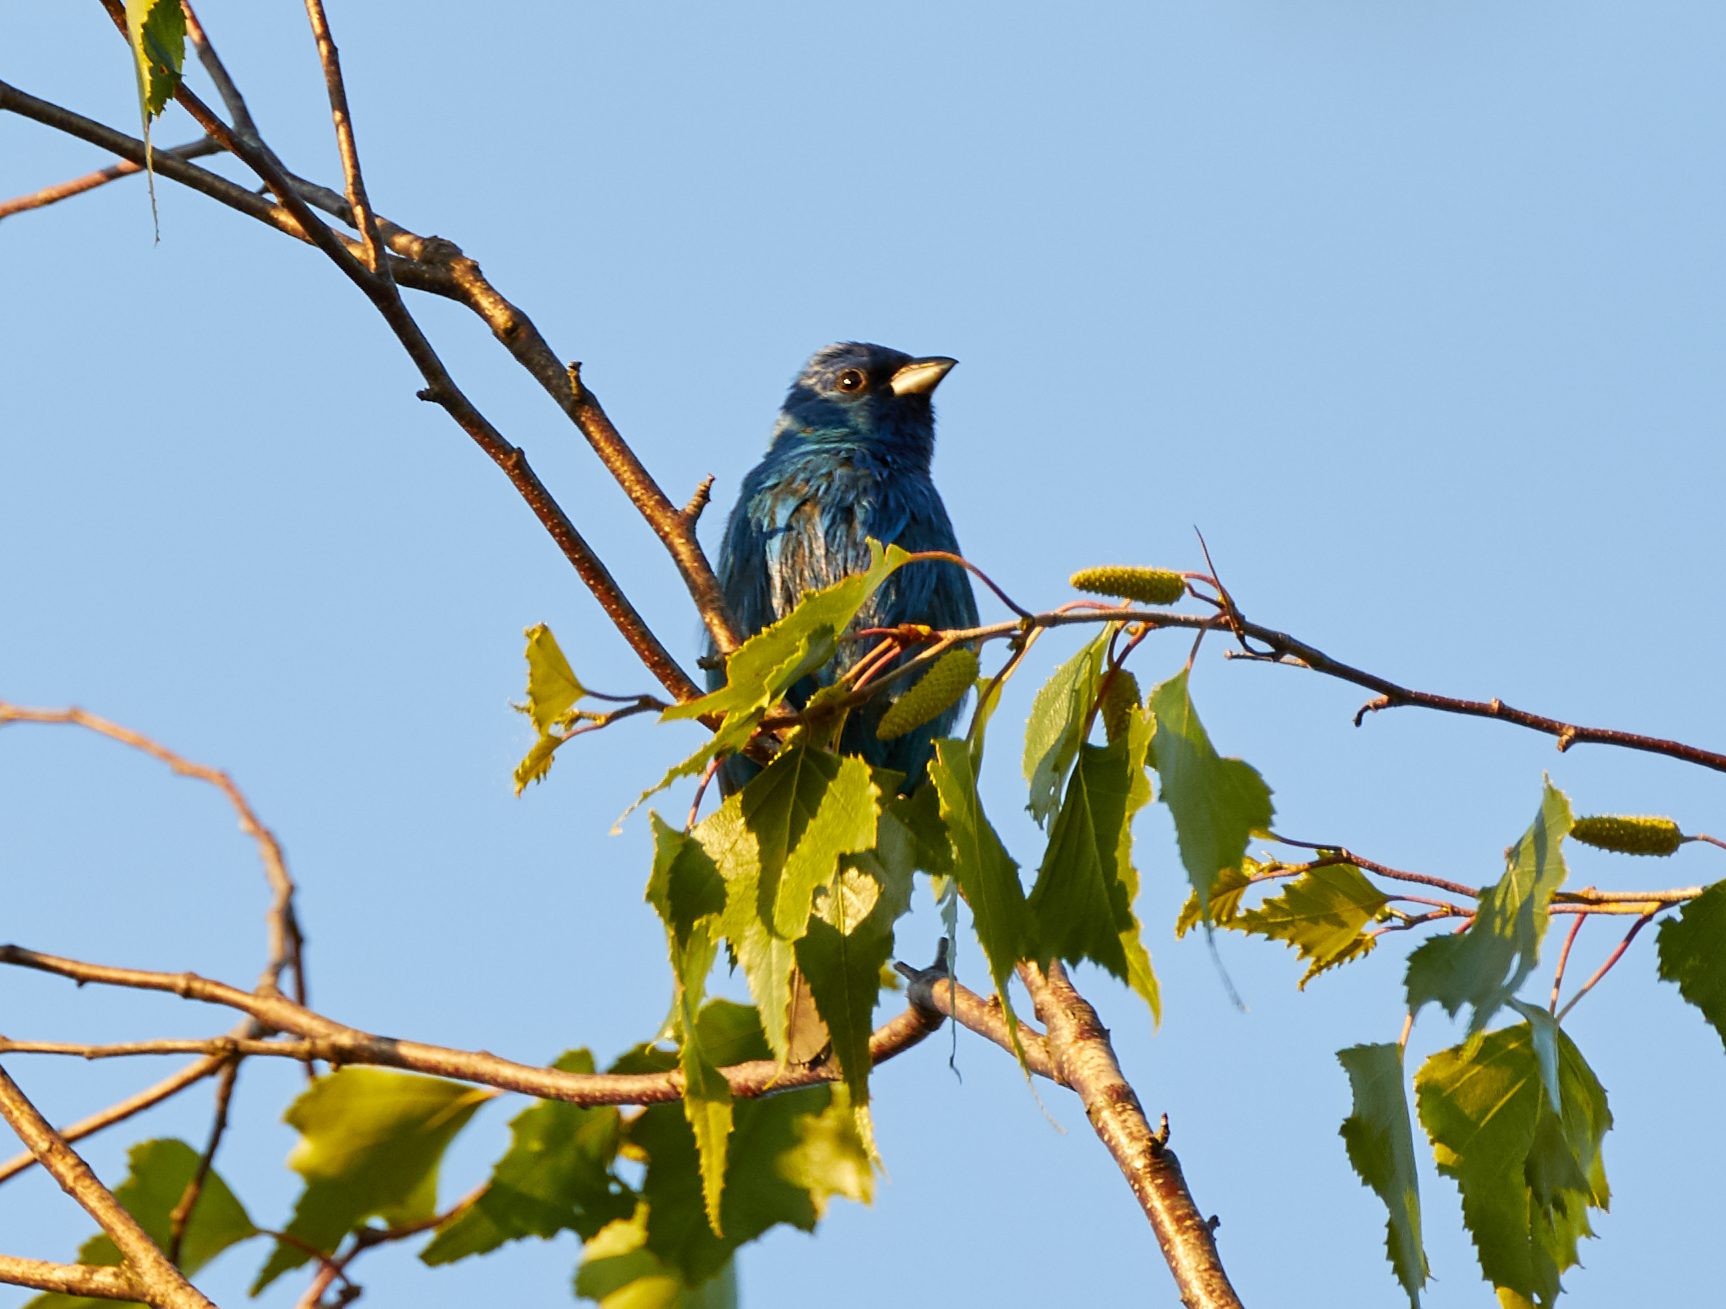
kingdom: Animalia
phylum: Chordata
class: Aves
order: Passeriformes
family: Cardinalidae
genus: Passerina
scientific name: Passerina cyanea
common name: Indigo bunting
